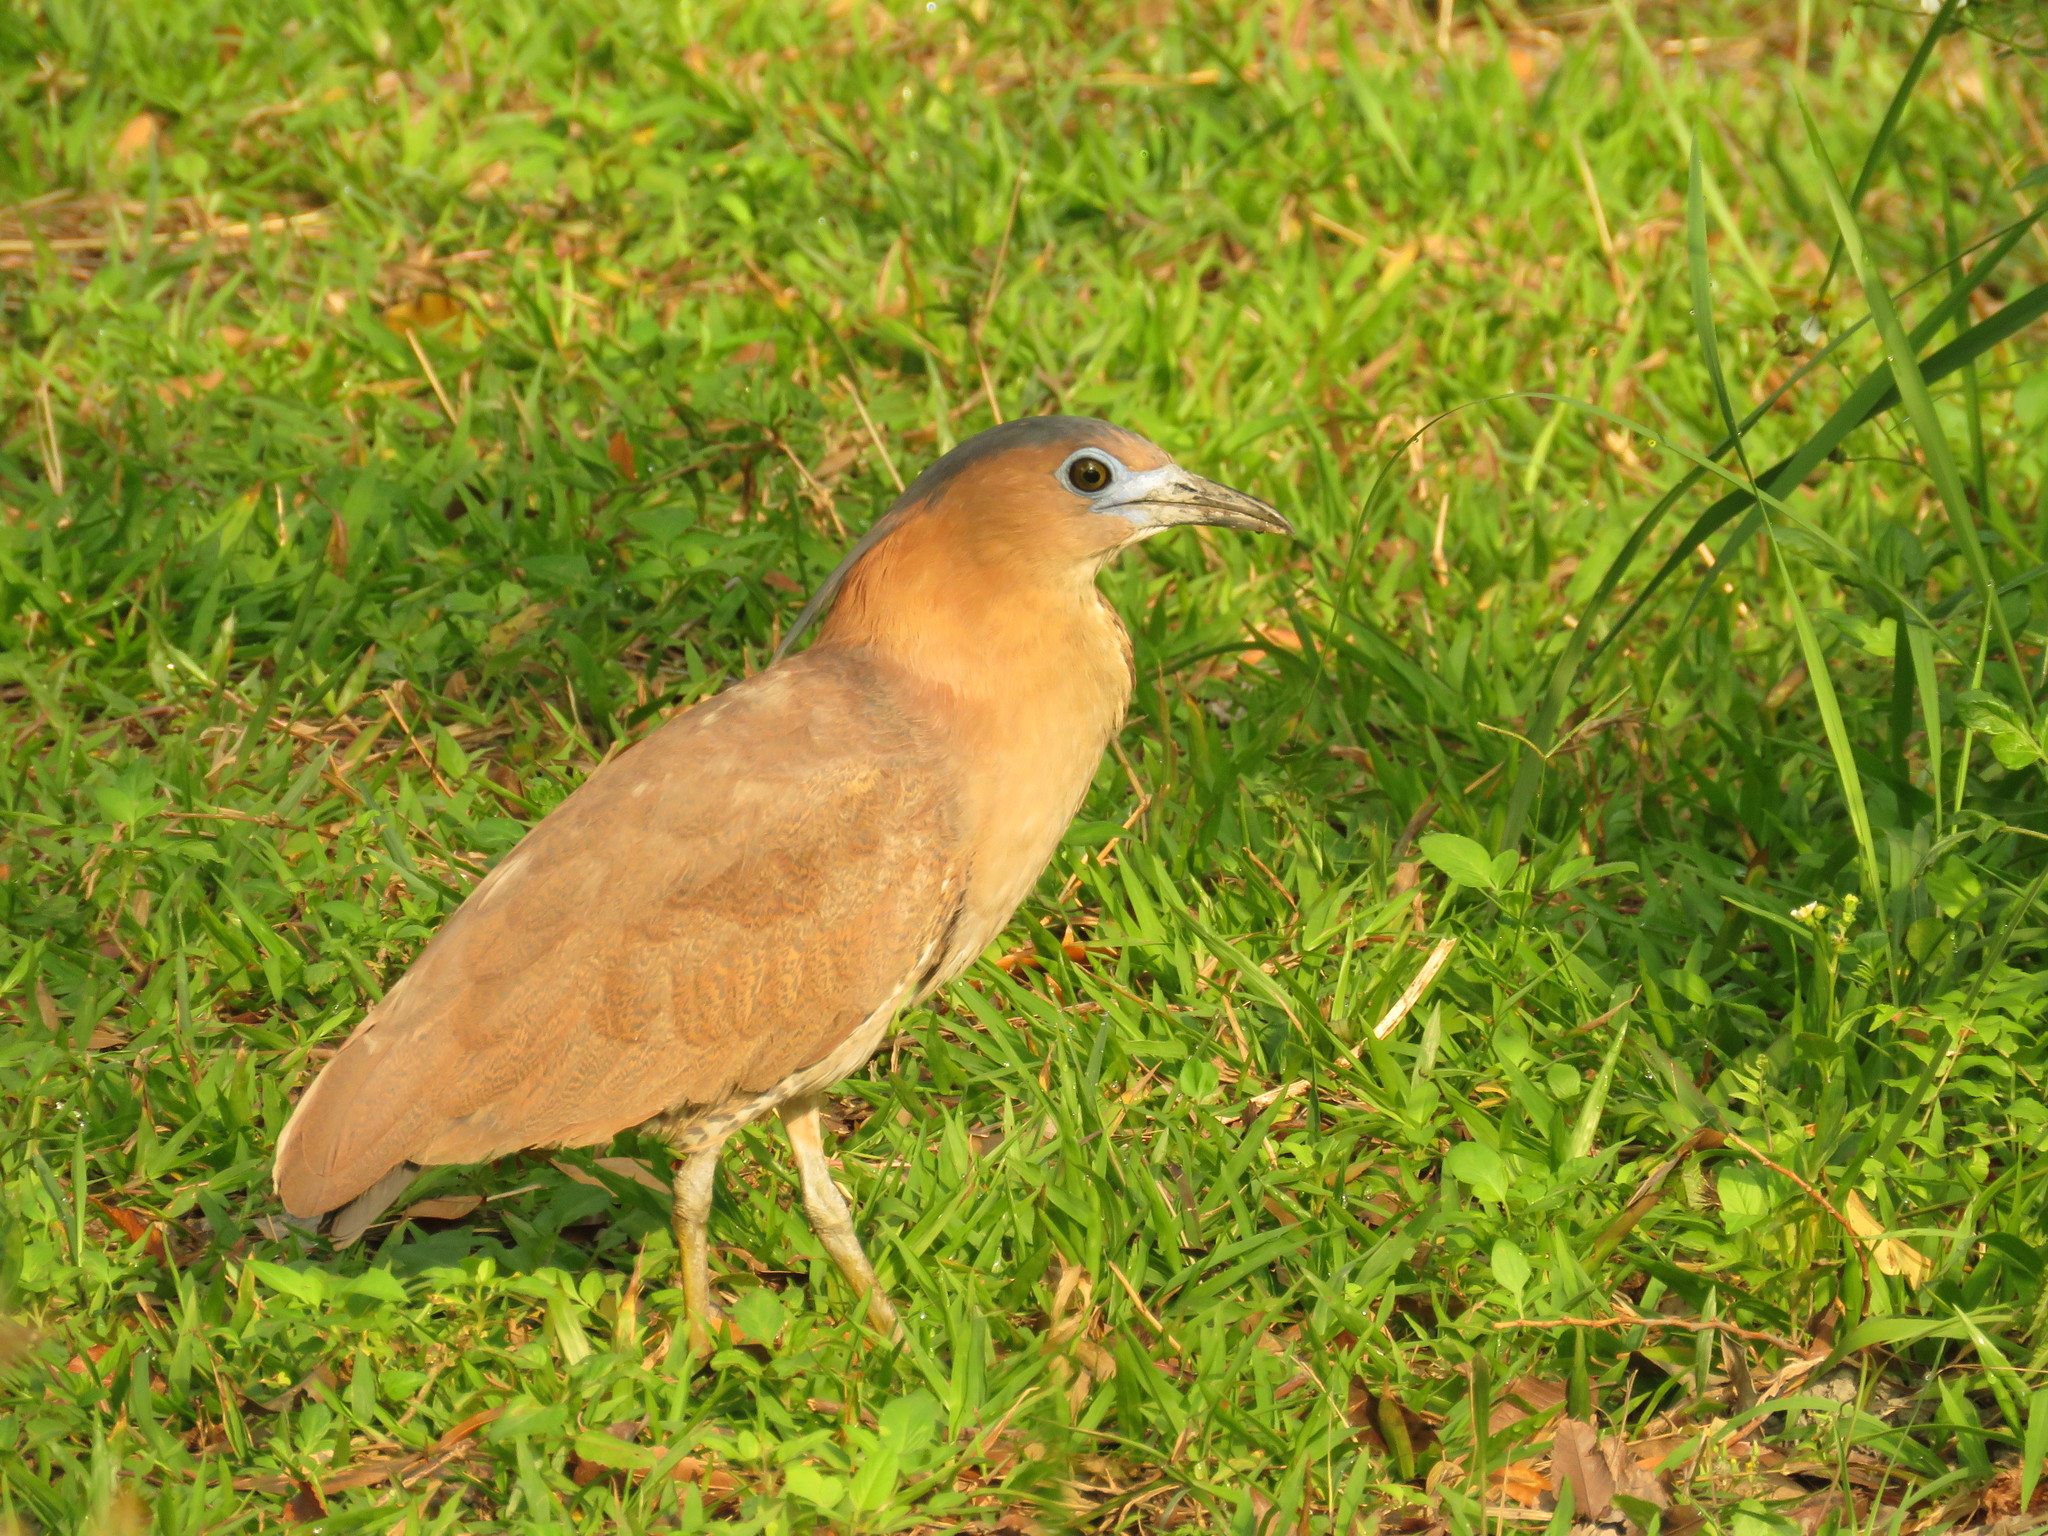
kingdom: Animalia
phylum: Chordata
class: Aves
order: Pelecaniformes
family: Ardeidae
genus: Gorsachius
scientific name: Gorsachius melanolophus
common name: Malayan night heron
